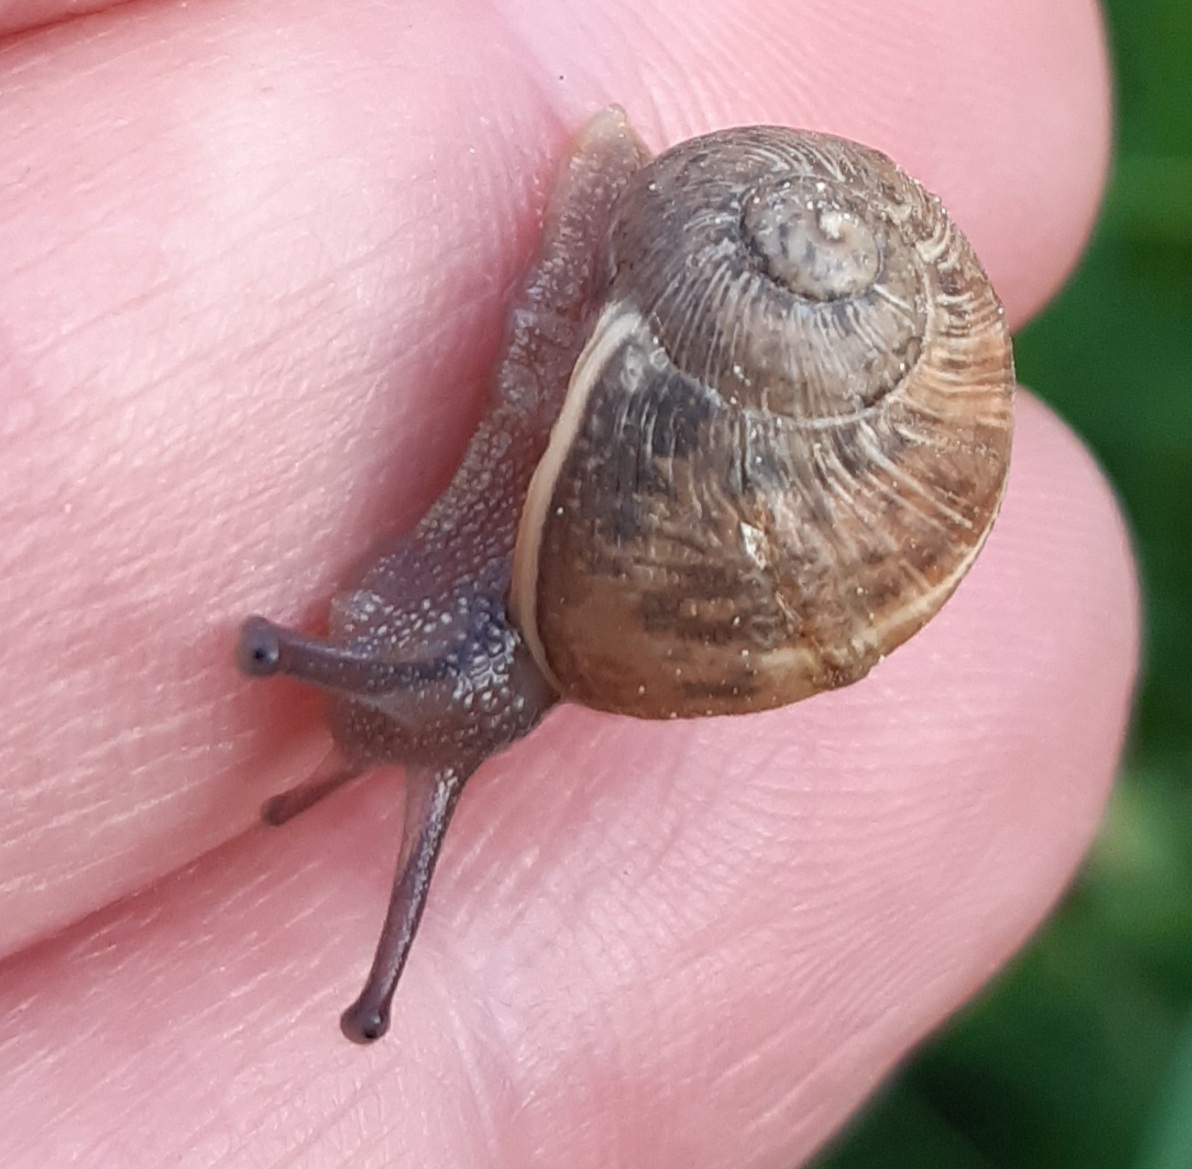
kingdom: Animalia
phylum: Mollusca
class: Gastropoda
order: Stylommatophora
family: Helicidae
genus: Cornu
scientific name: Cornu aspersum
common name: Brown garden snail
